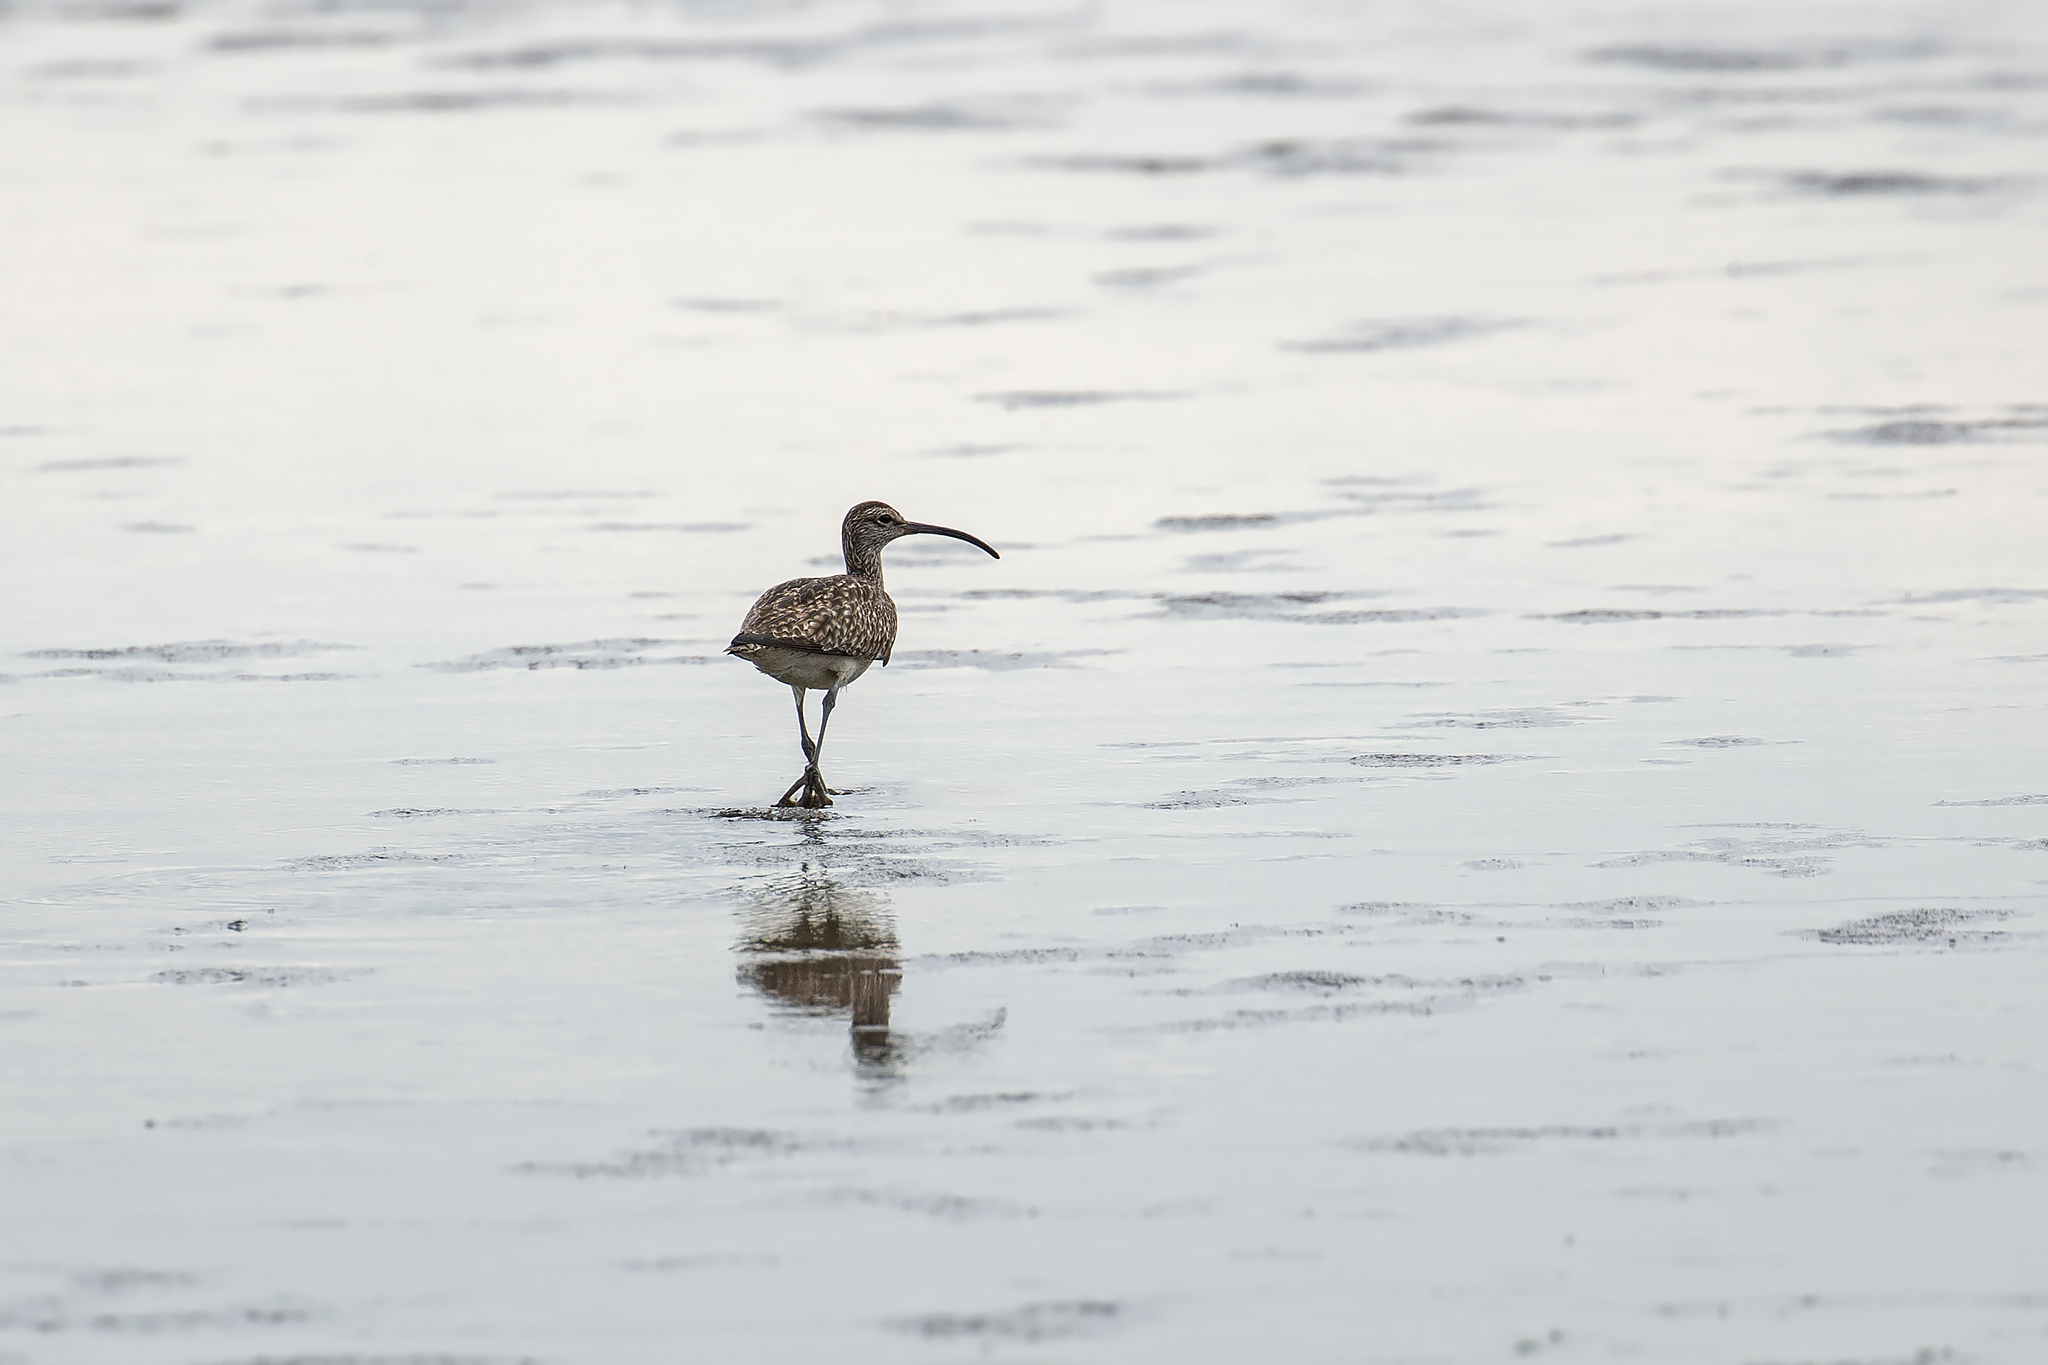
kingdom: Animalia
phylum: Chordata
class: Aves
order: Charadriiformes
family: Scolopacidae
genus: Numenius
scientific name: Numenius phaeopus
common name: Whimbrel
